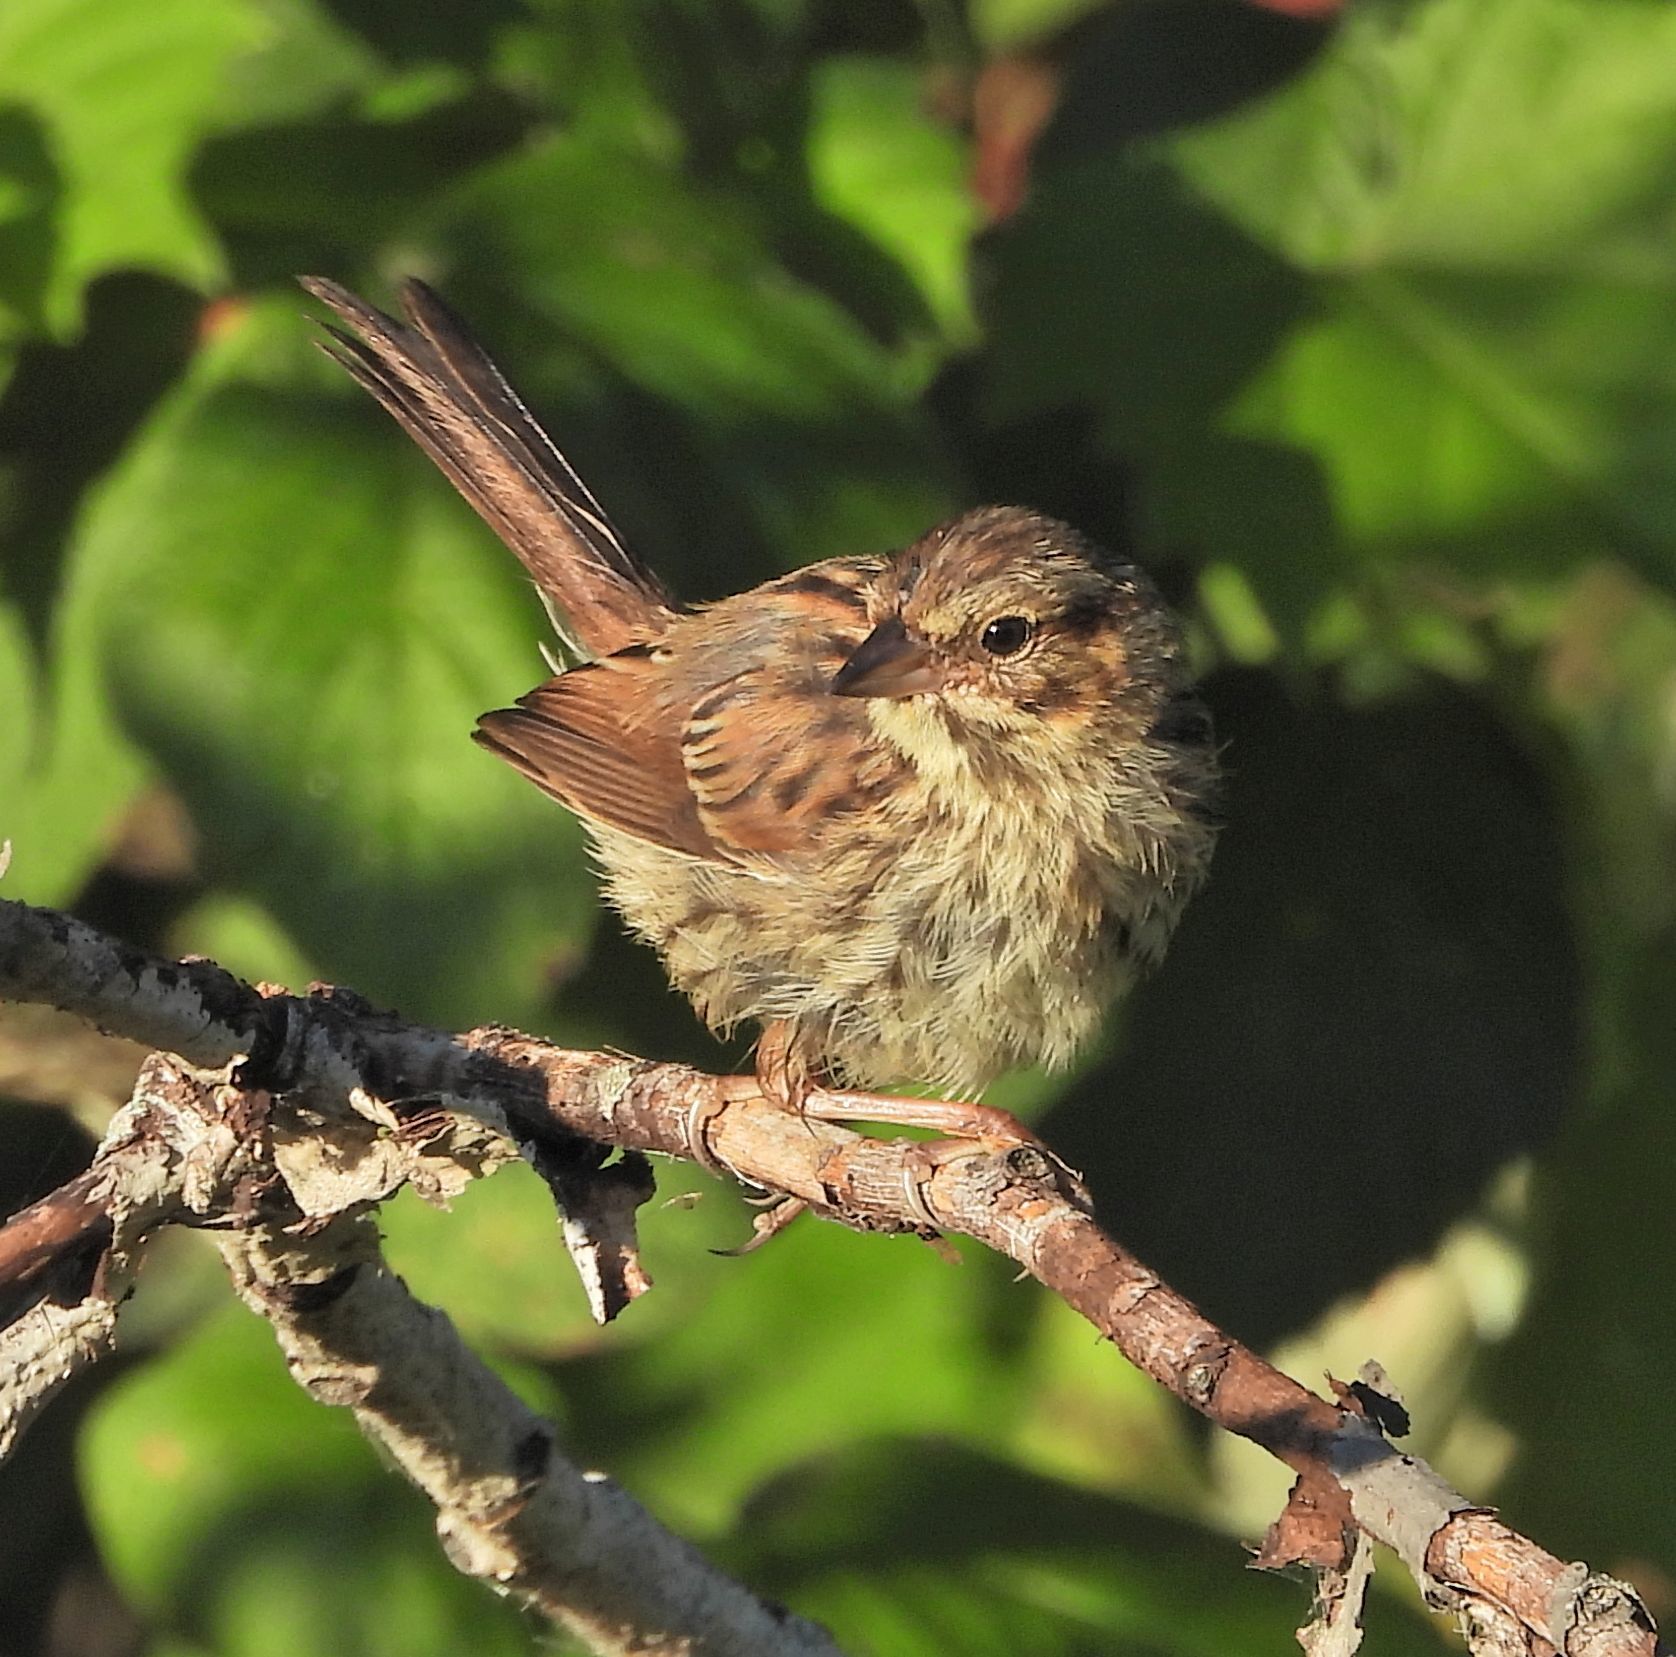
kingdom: Animalia
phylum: Chordata
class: Aves
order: Passeriformes
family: Passerellidae
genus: Melospiza
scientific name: Melospiza melodia
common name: Song sparrow
